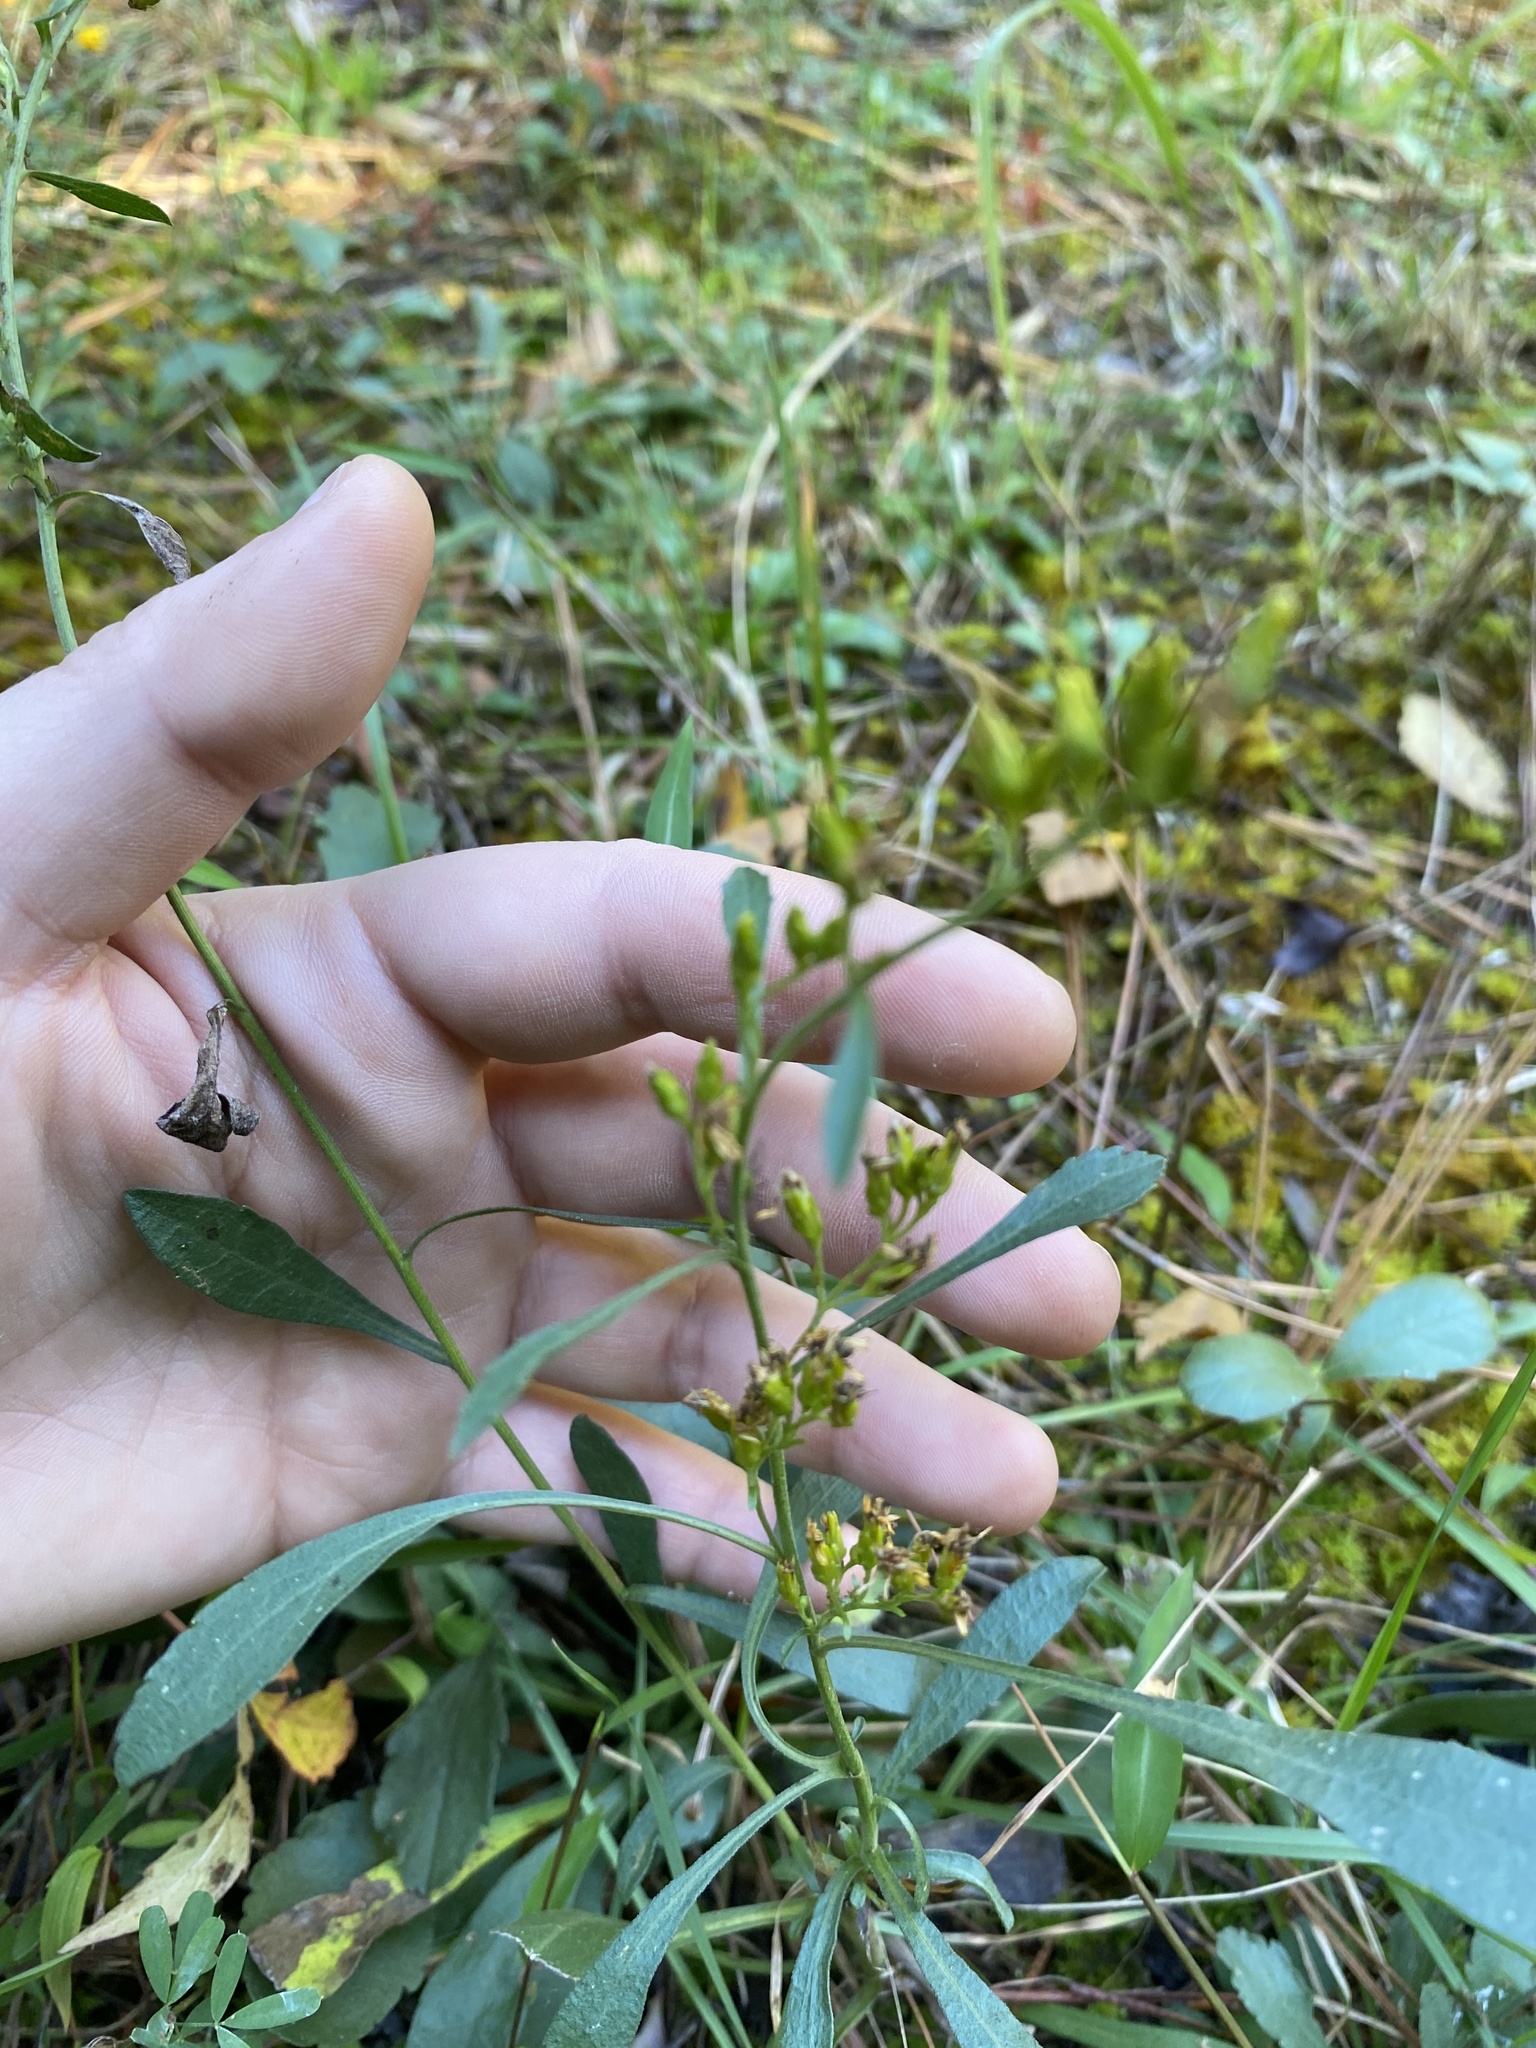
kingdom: Plantae
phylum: Tracheophyta
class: Magnoliopsida
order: Asterales
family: Asteraceae
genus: Solidago
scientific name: Solidago pinetorum
